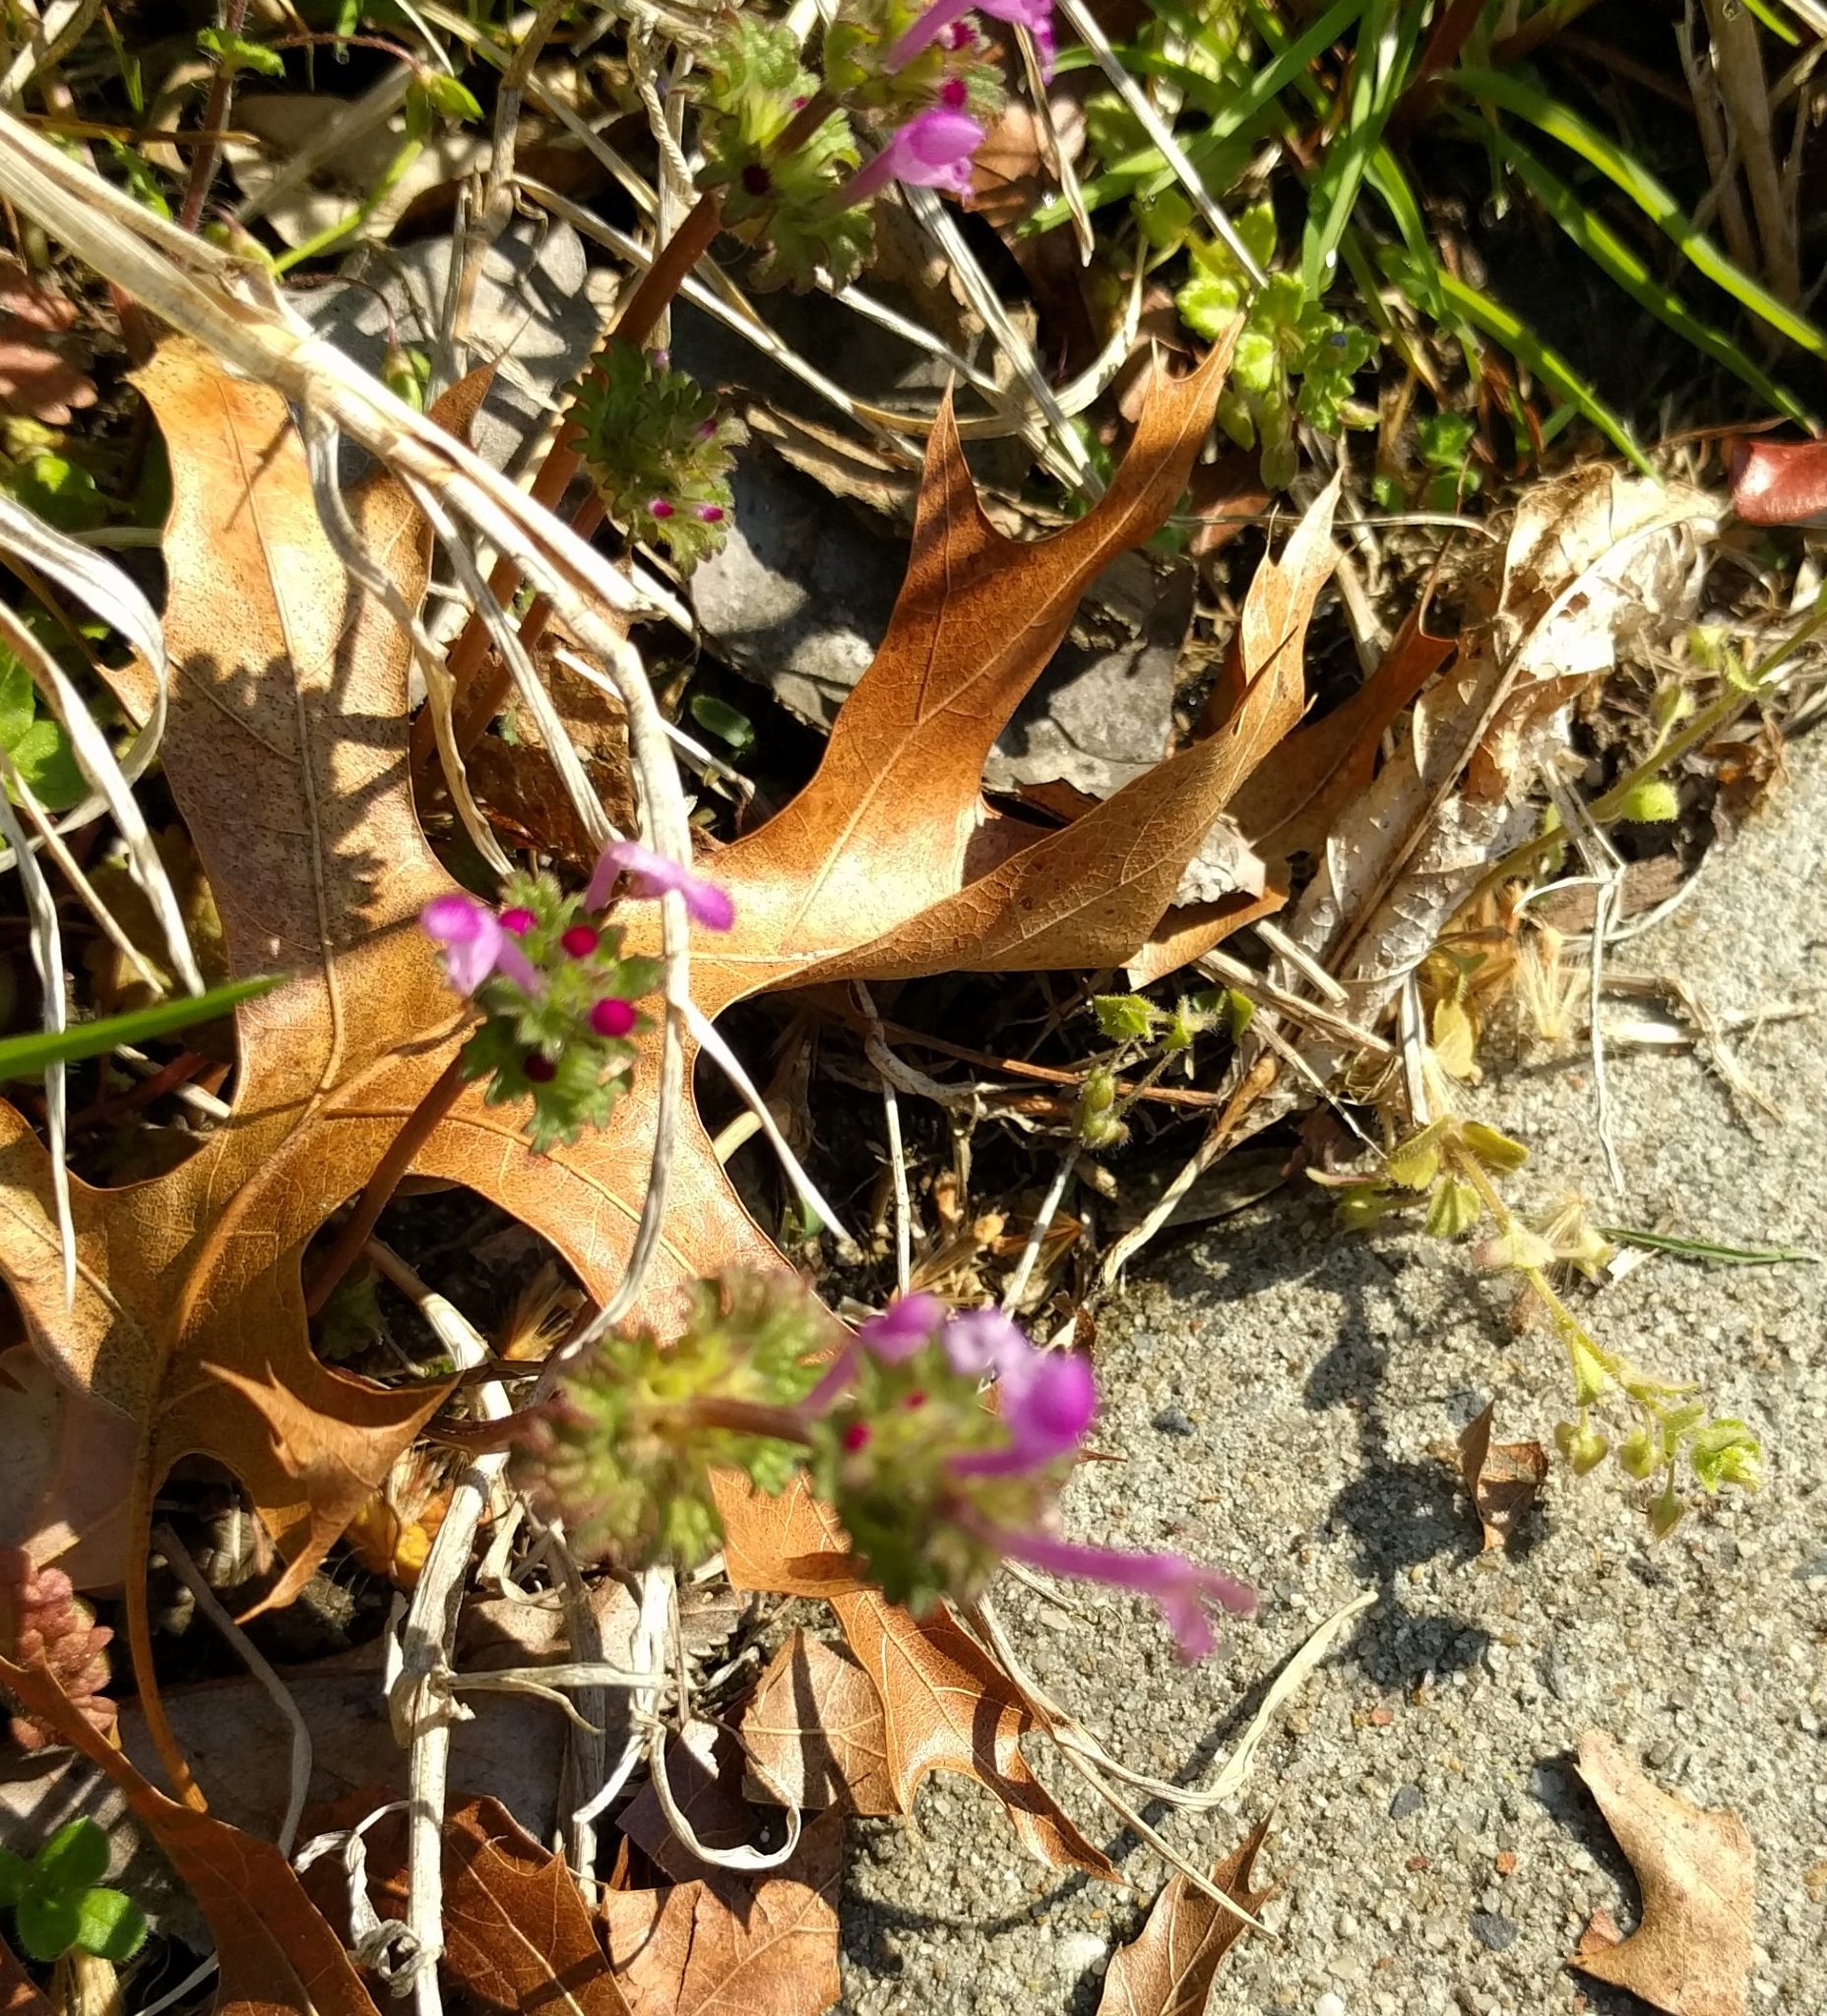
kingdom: Plantae
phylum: Tracheophyta
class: Magnoliopsida
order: Lamiales
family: Lamiaceae
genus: Lamium
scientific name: Lamium amplexicaule
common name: Henbit dead-nettle
